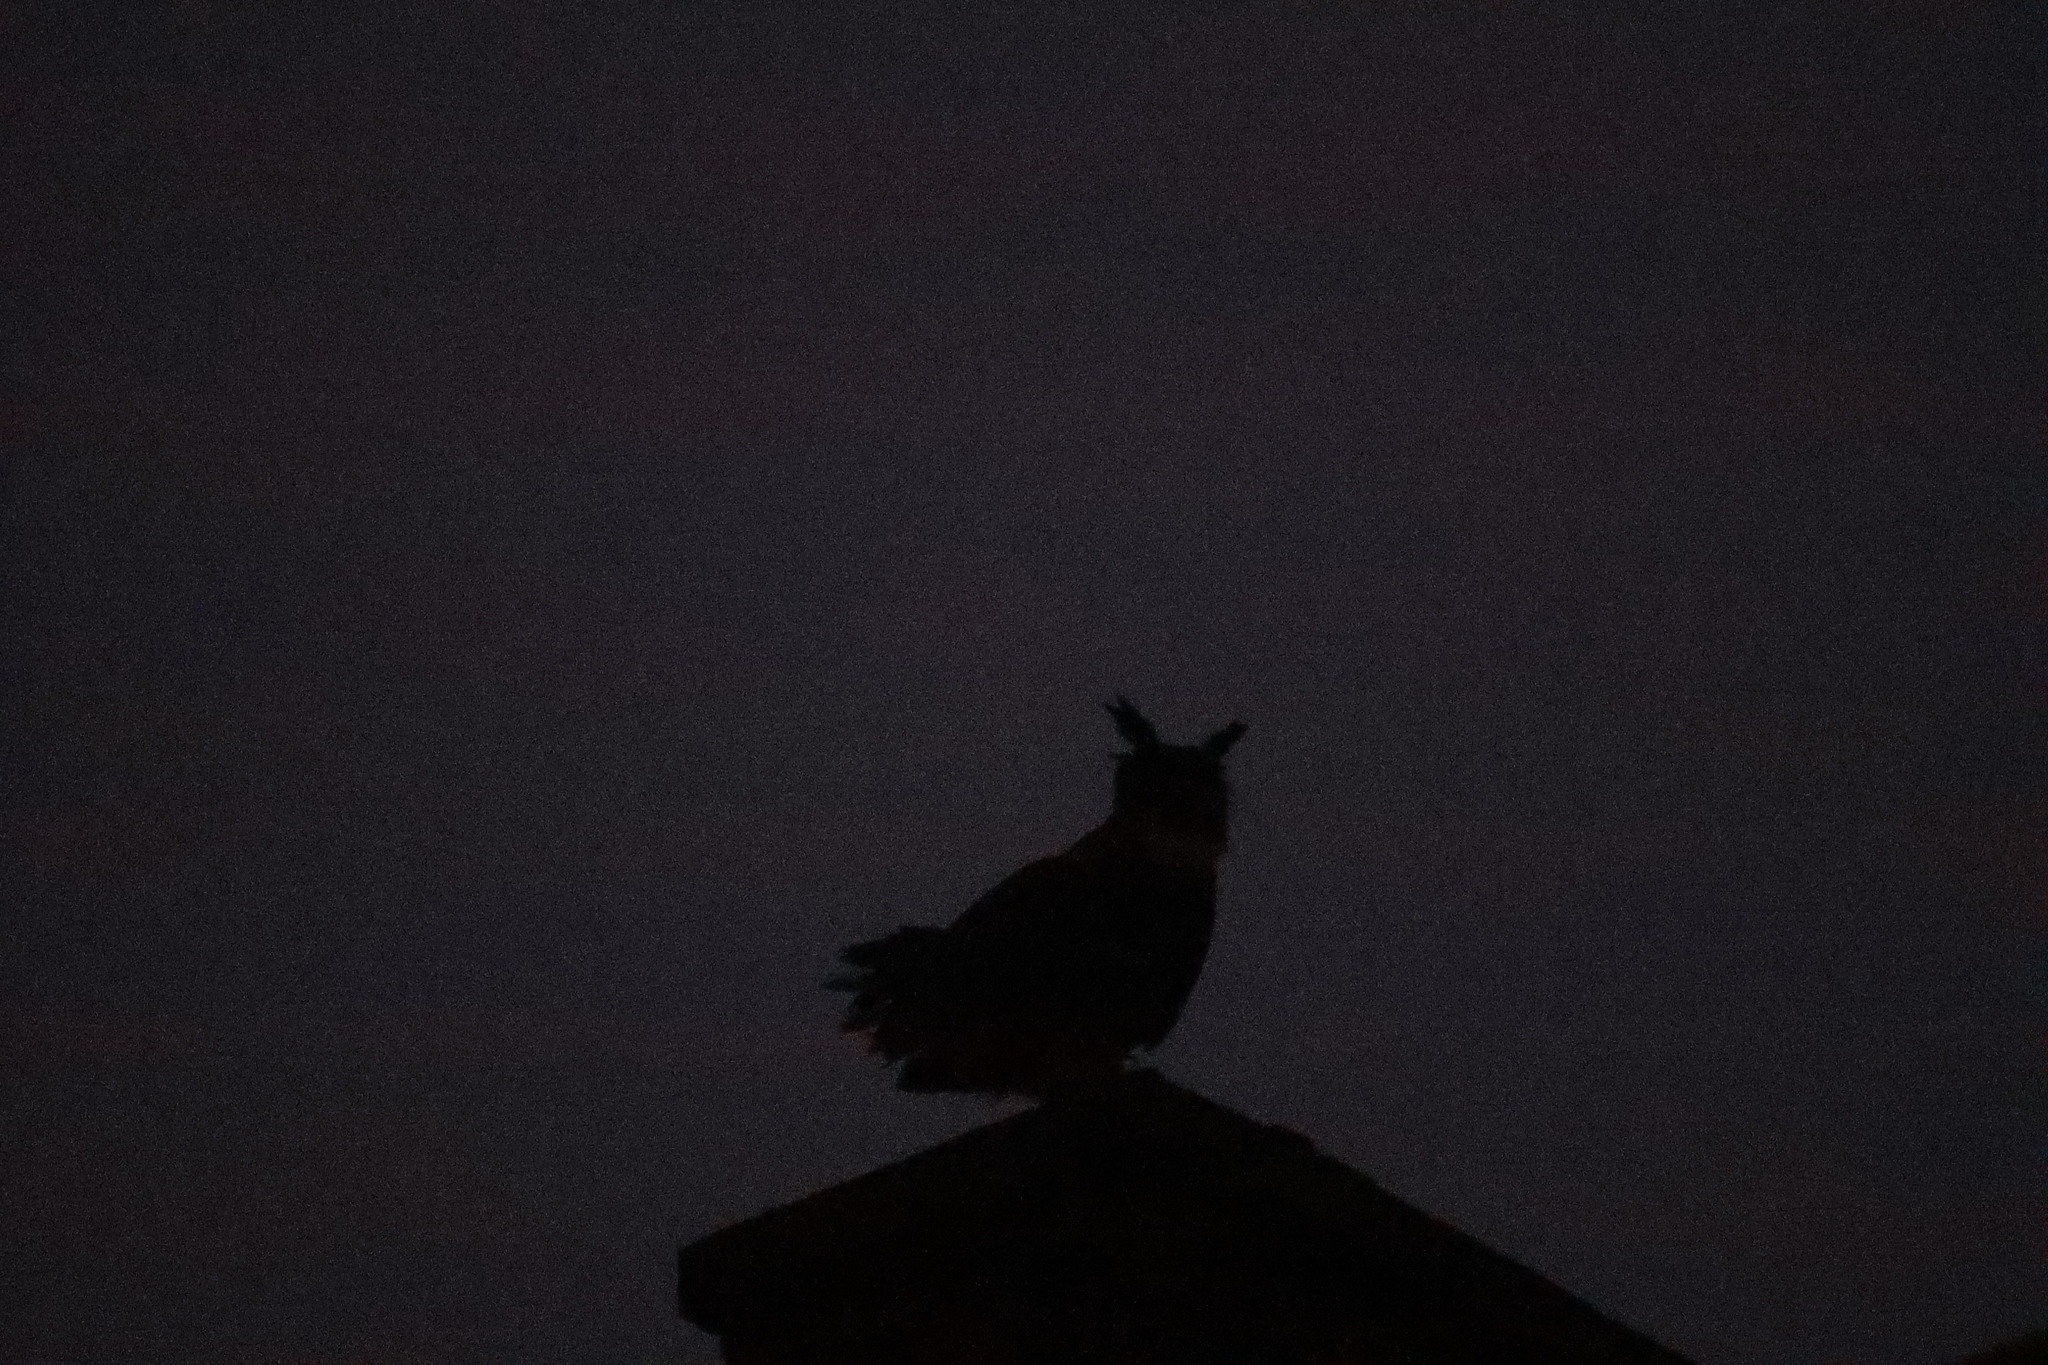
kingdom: Animalia
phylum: Chordata
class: Aves
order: Strigiformes
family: Strigidae
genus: Bubo
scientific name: Bubo bubo
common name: Eurasian eagle-owl
